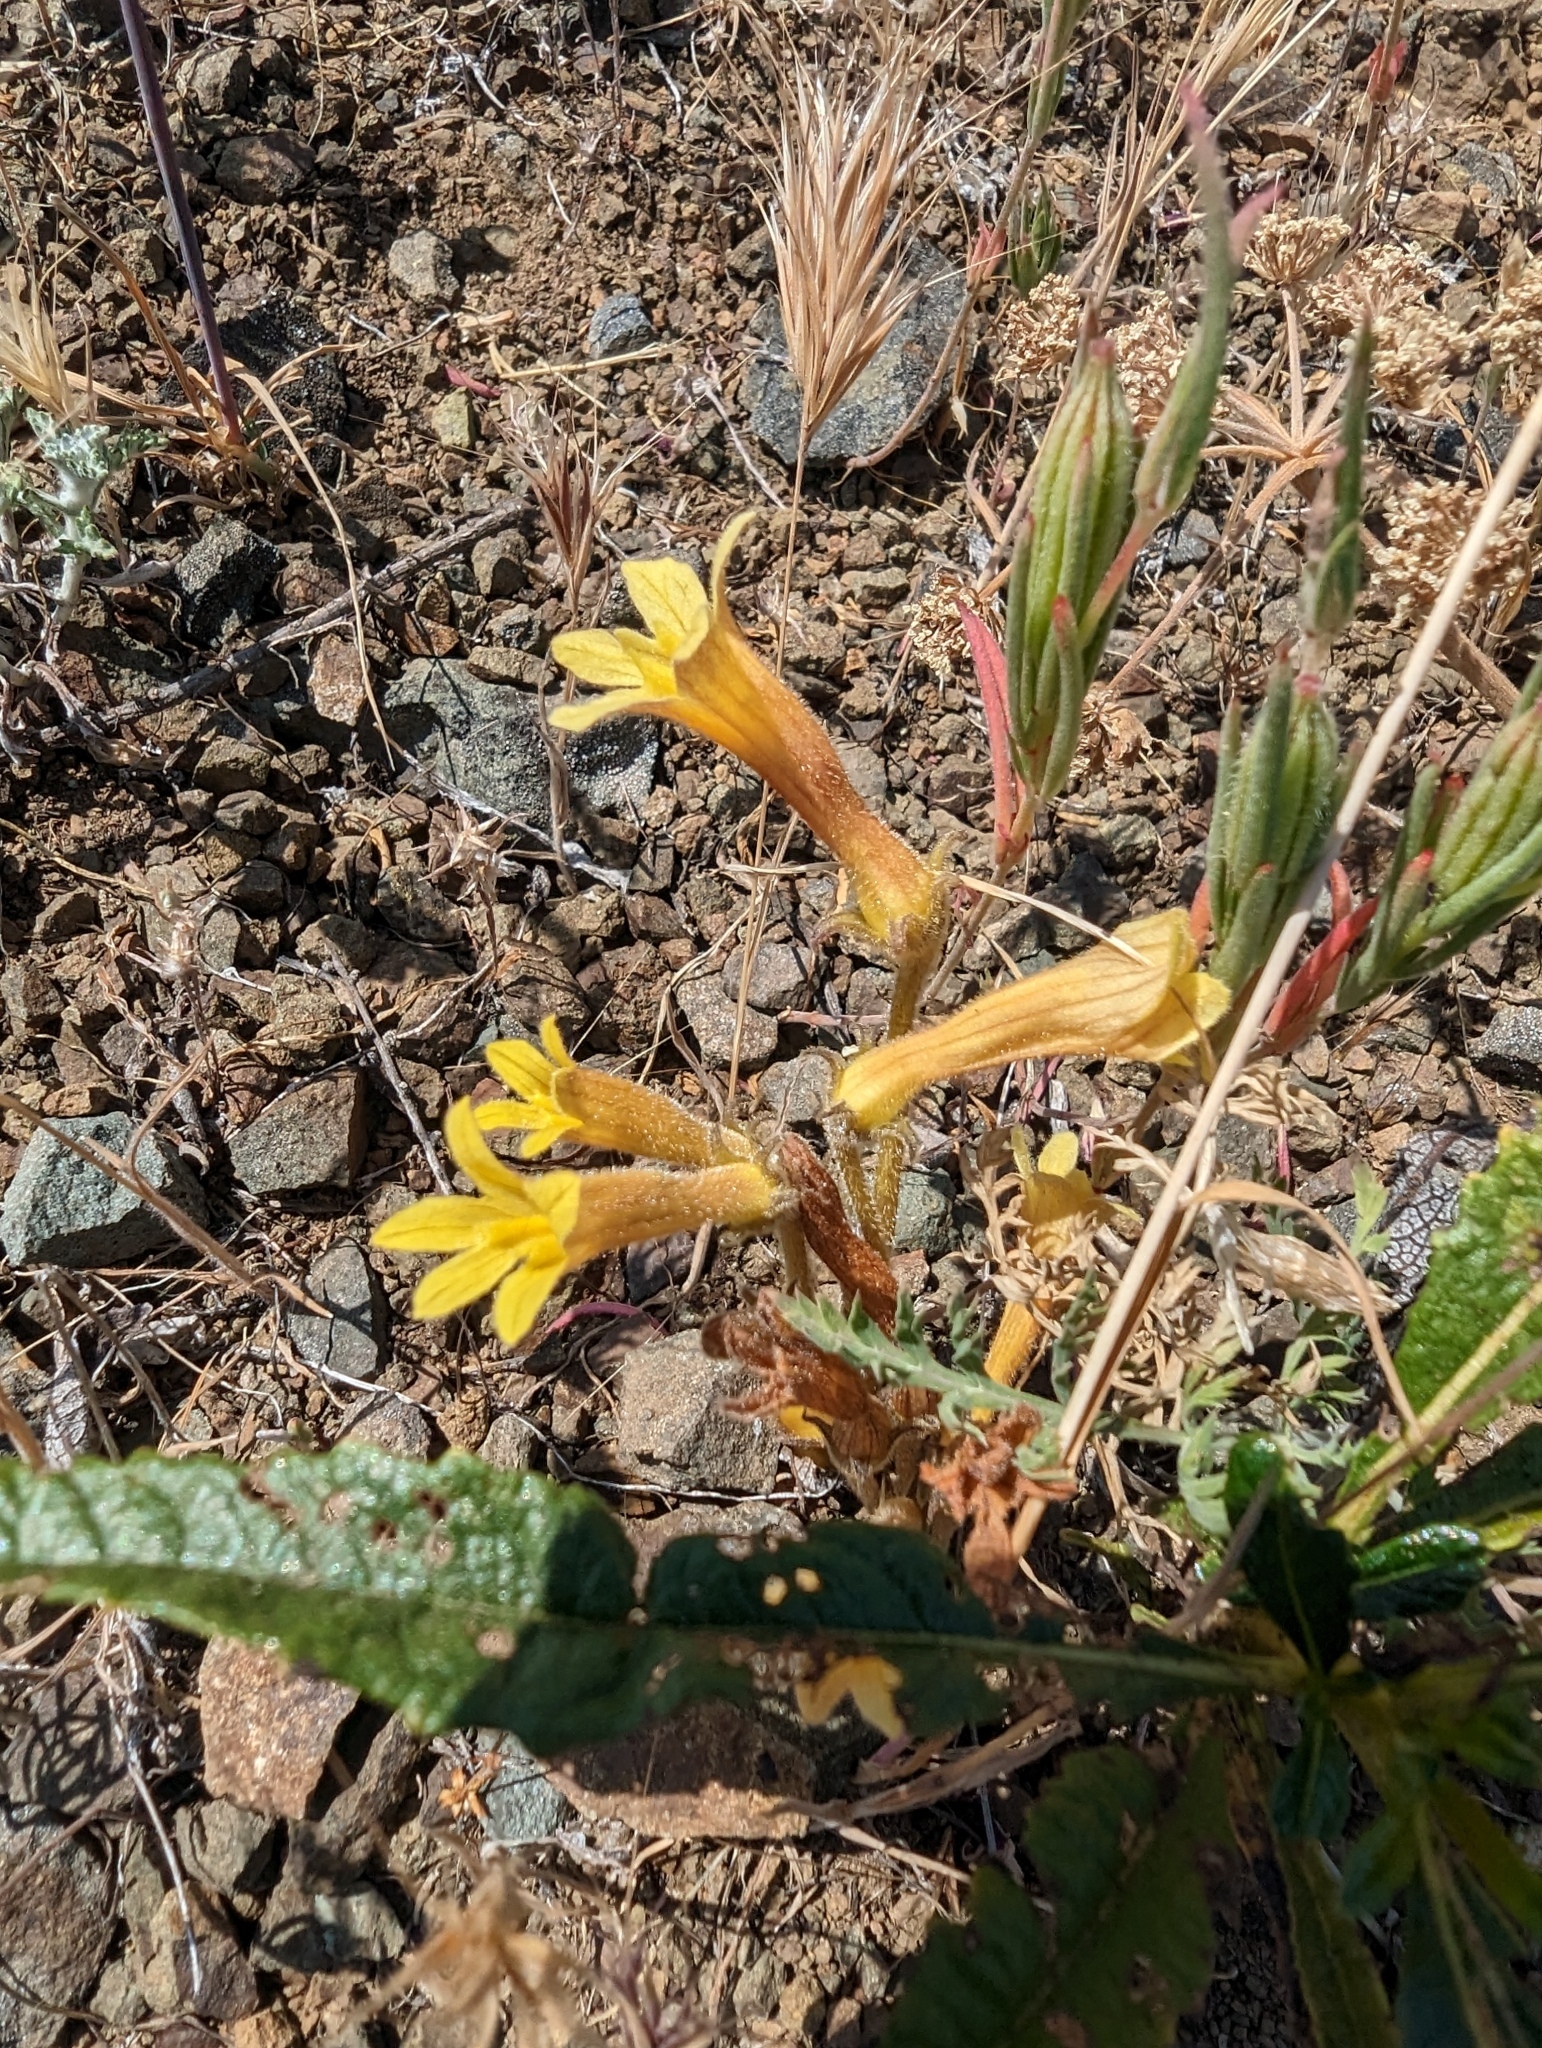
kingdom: Plantae
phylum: Tracheophyta
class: Magnoliopsida
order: Lamiales
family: Orobanchaceae
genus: Aphyllon
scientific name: Aphyllon franciscanum
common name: San francisco broomrape
